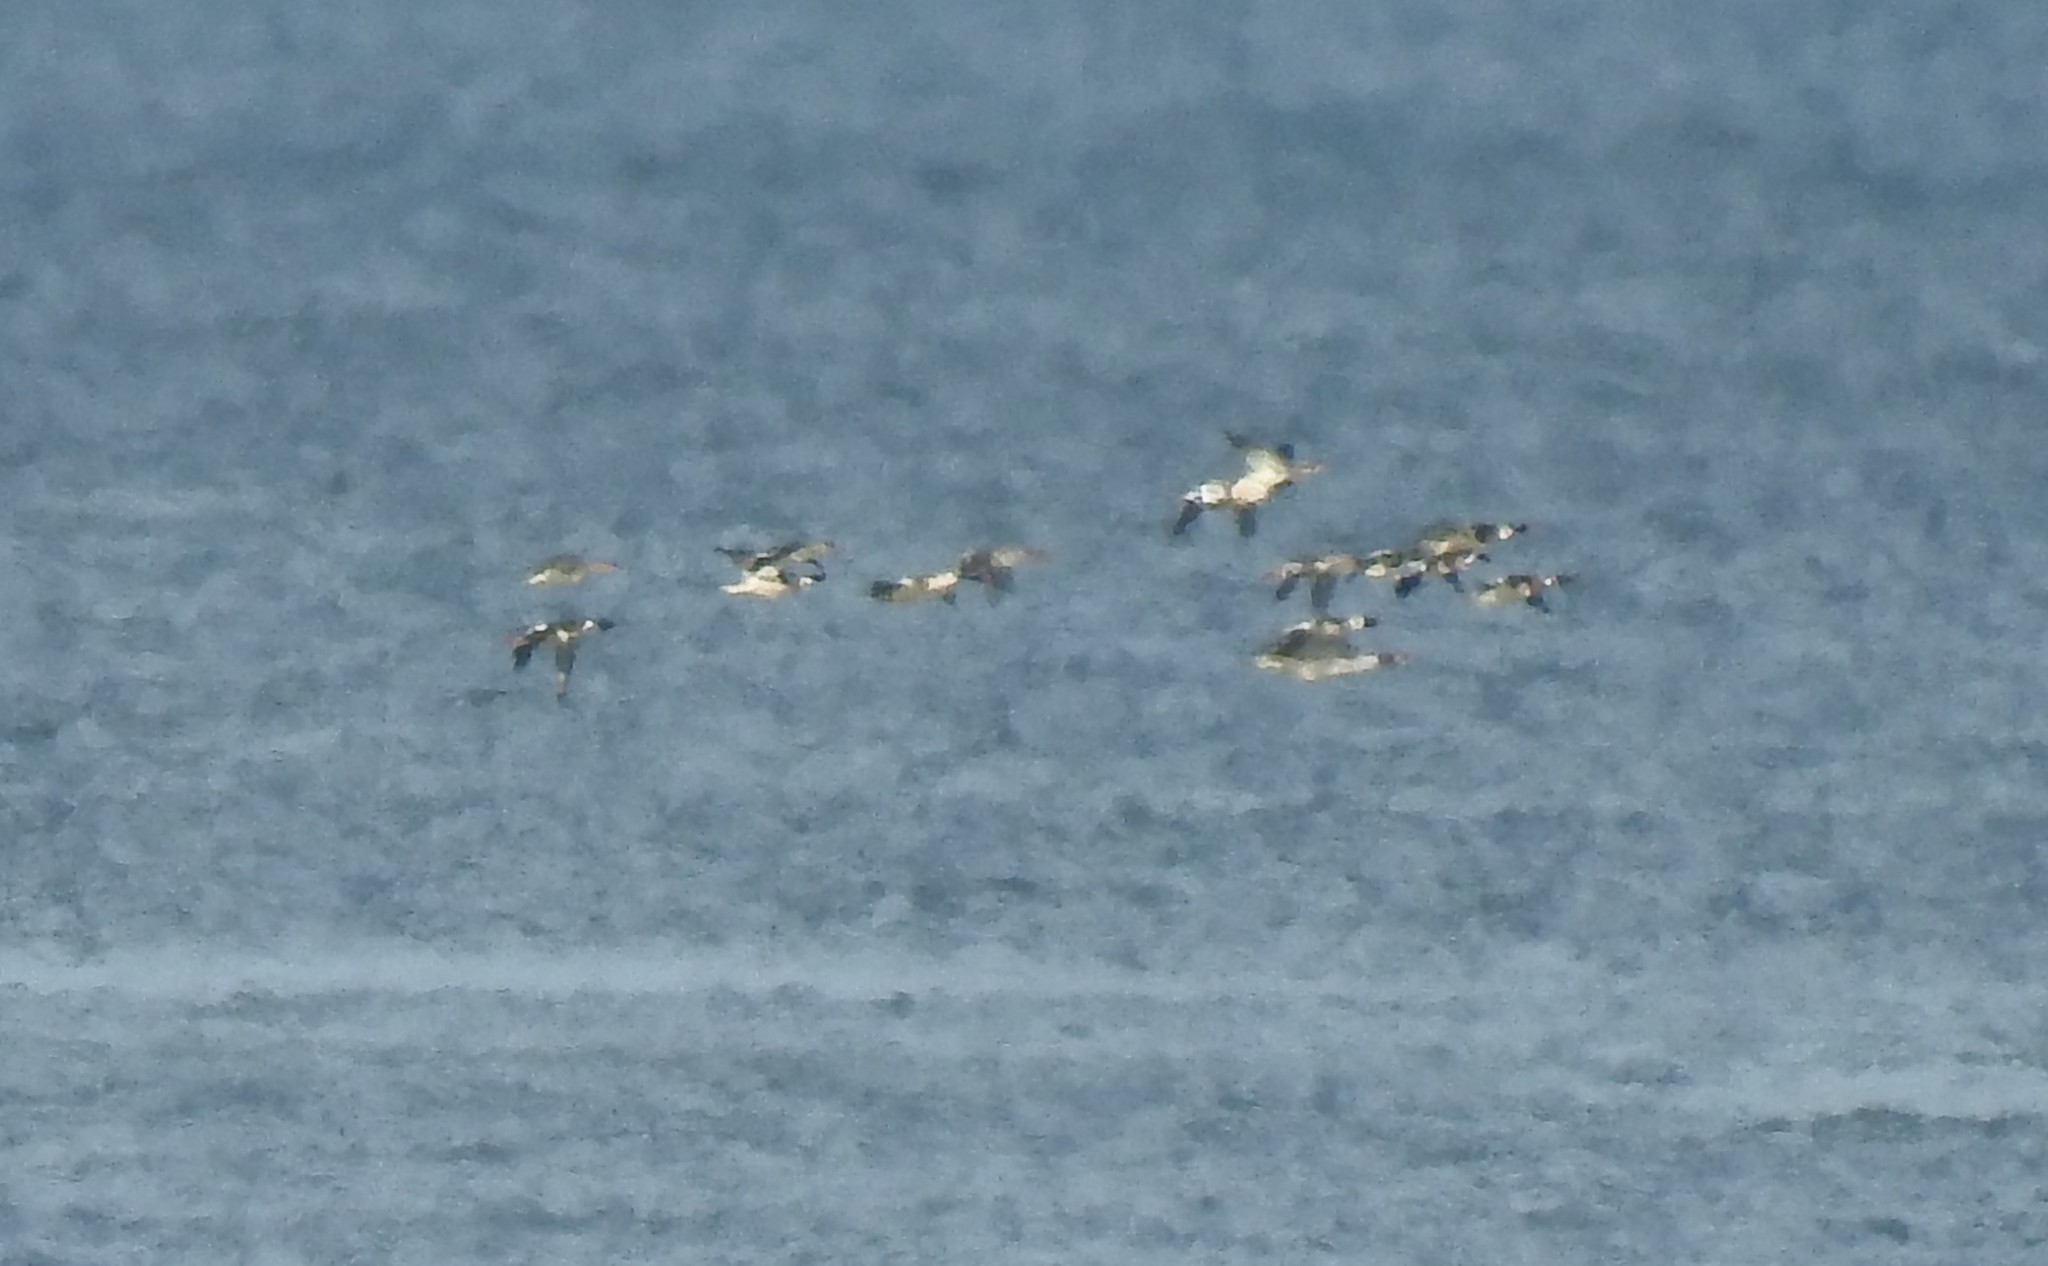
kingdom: Animalia
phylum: Chordata
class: Aves
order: Anseriformes
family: Anatidae
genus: Mergus
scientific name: Mergus serrator
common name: Red-breasted merganser
